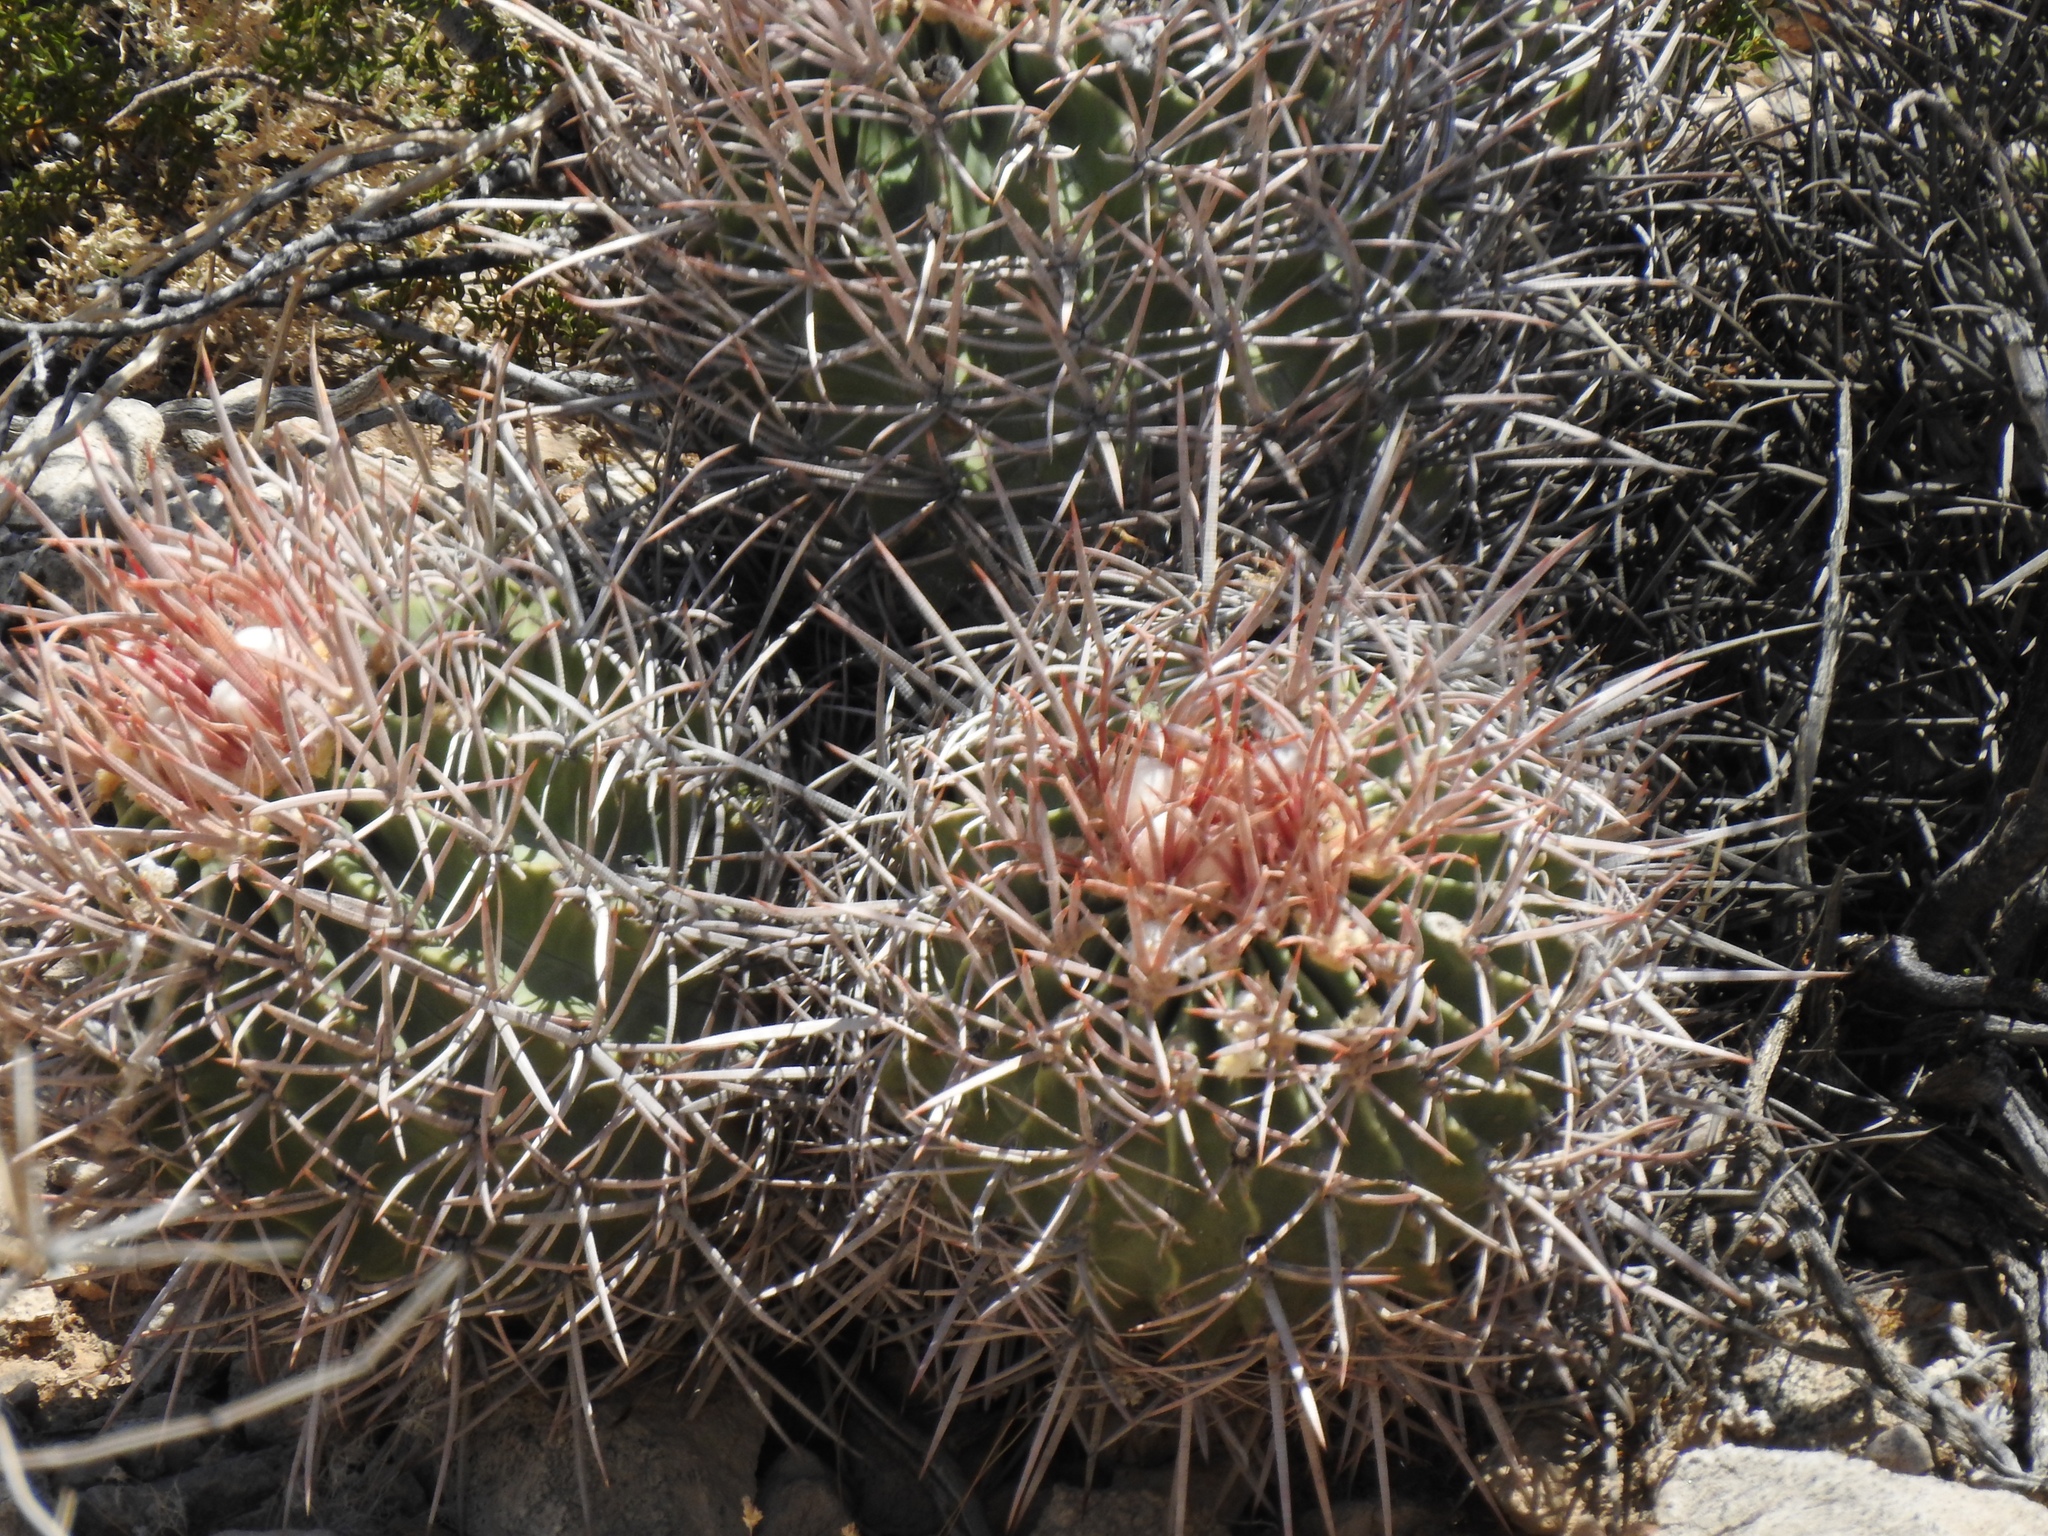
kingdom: Plantae
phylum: Tracheophyta
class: Magnoliopsida
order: Caryophyllales
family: Cactaceae
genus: Echinocactus
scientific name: Echinocactus polycephalus
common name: Cottontop cactus
